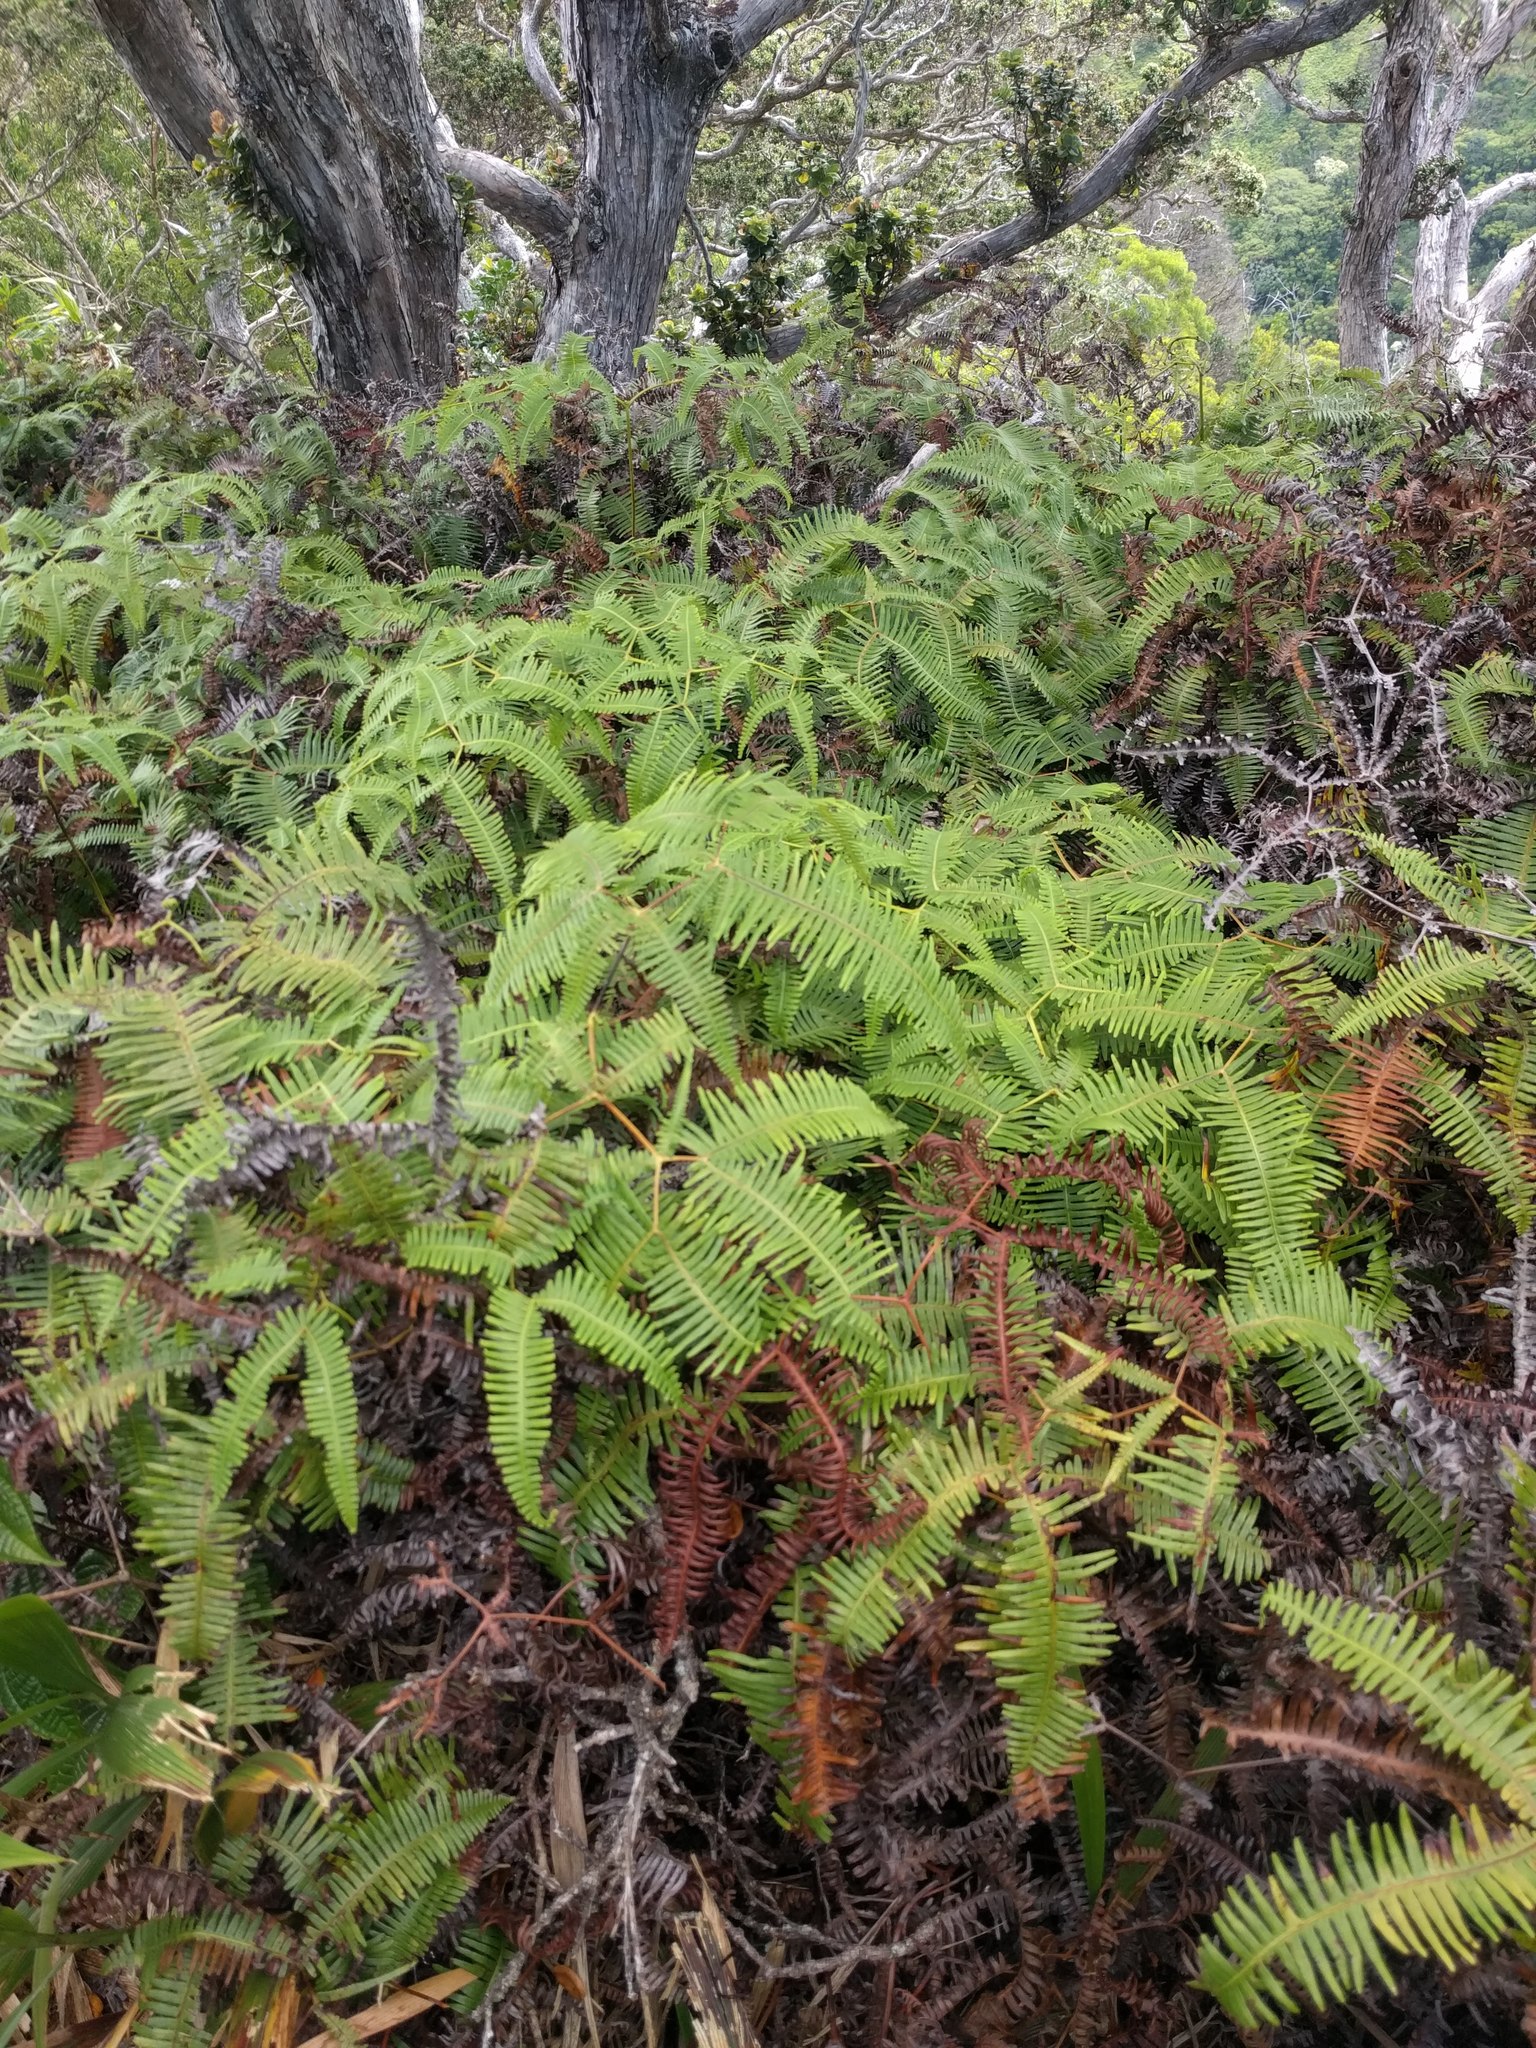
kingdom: Plantae
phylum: Tracheophyta
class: Polypodiopsida
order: Gleicheniales
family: Gleicheniaceae
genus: Dicranopteris
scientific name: Dicranopteris linearis
